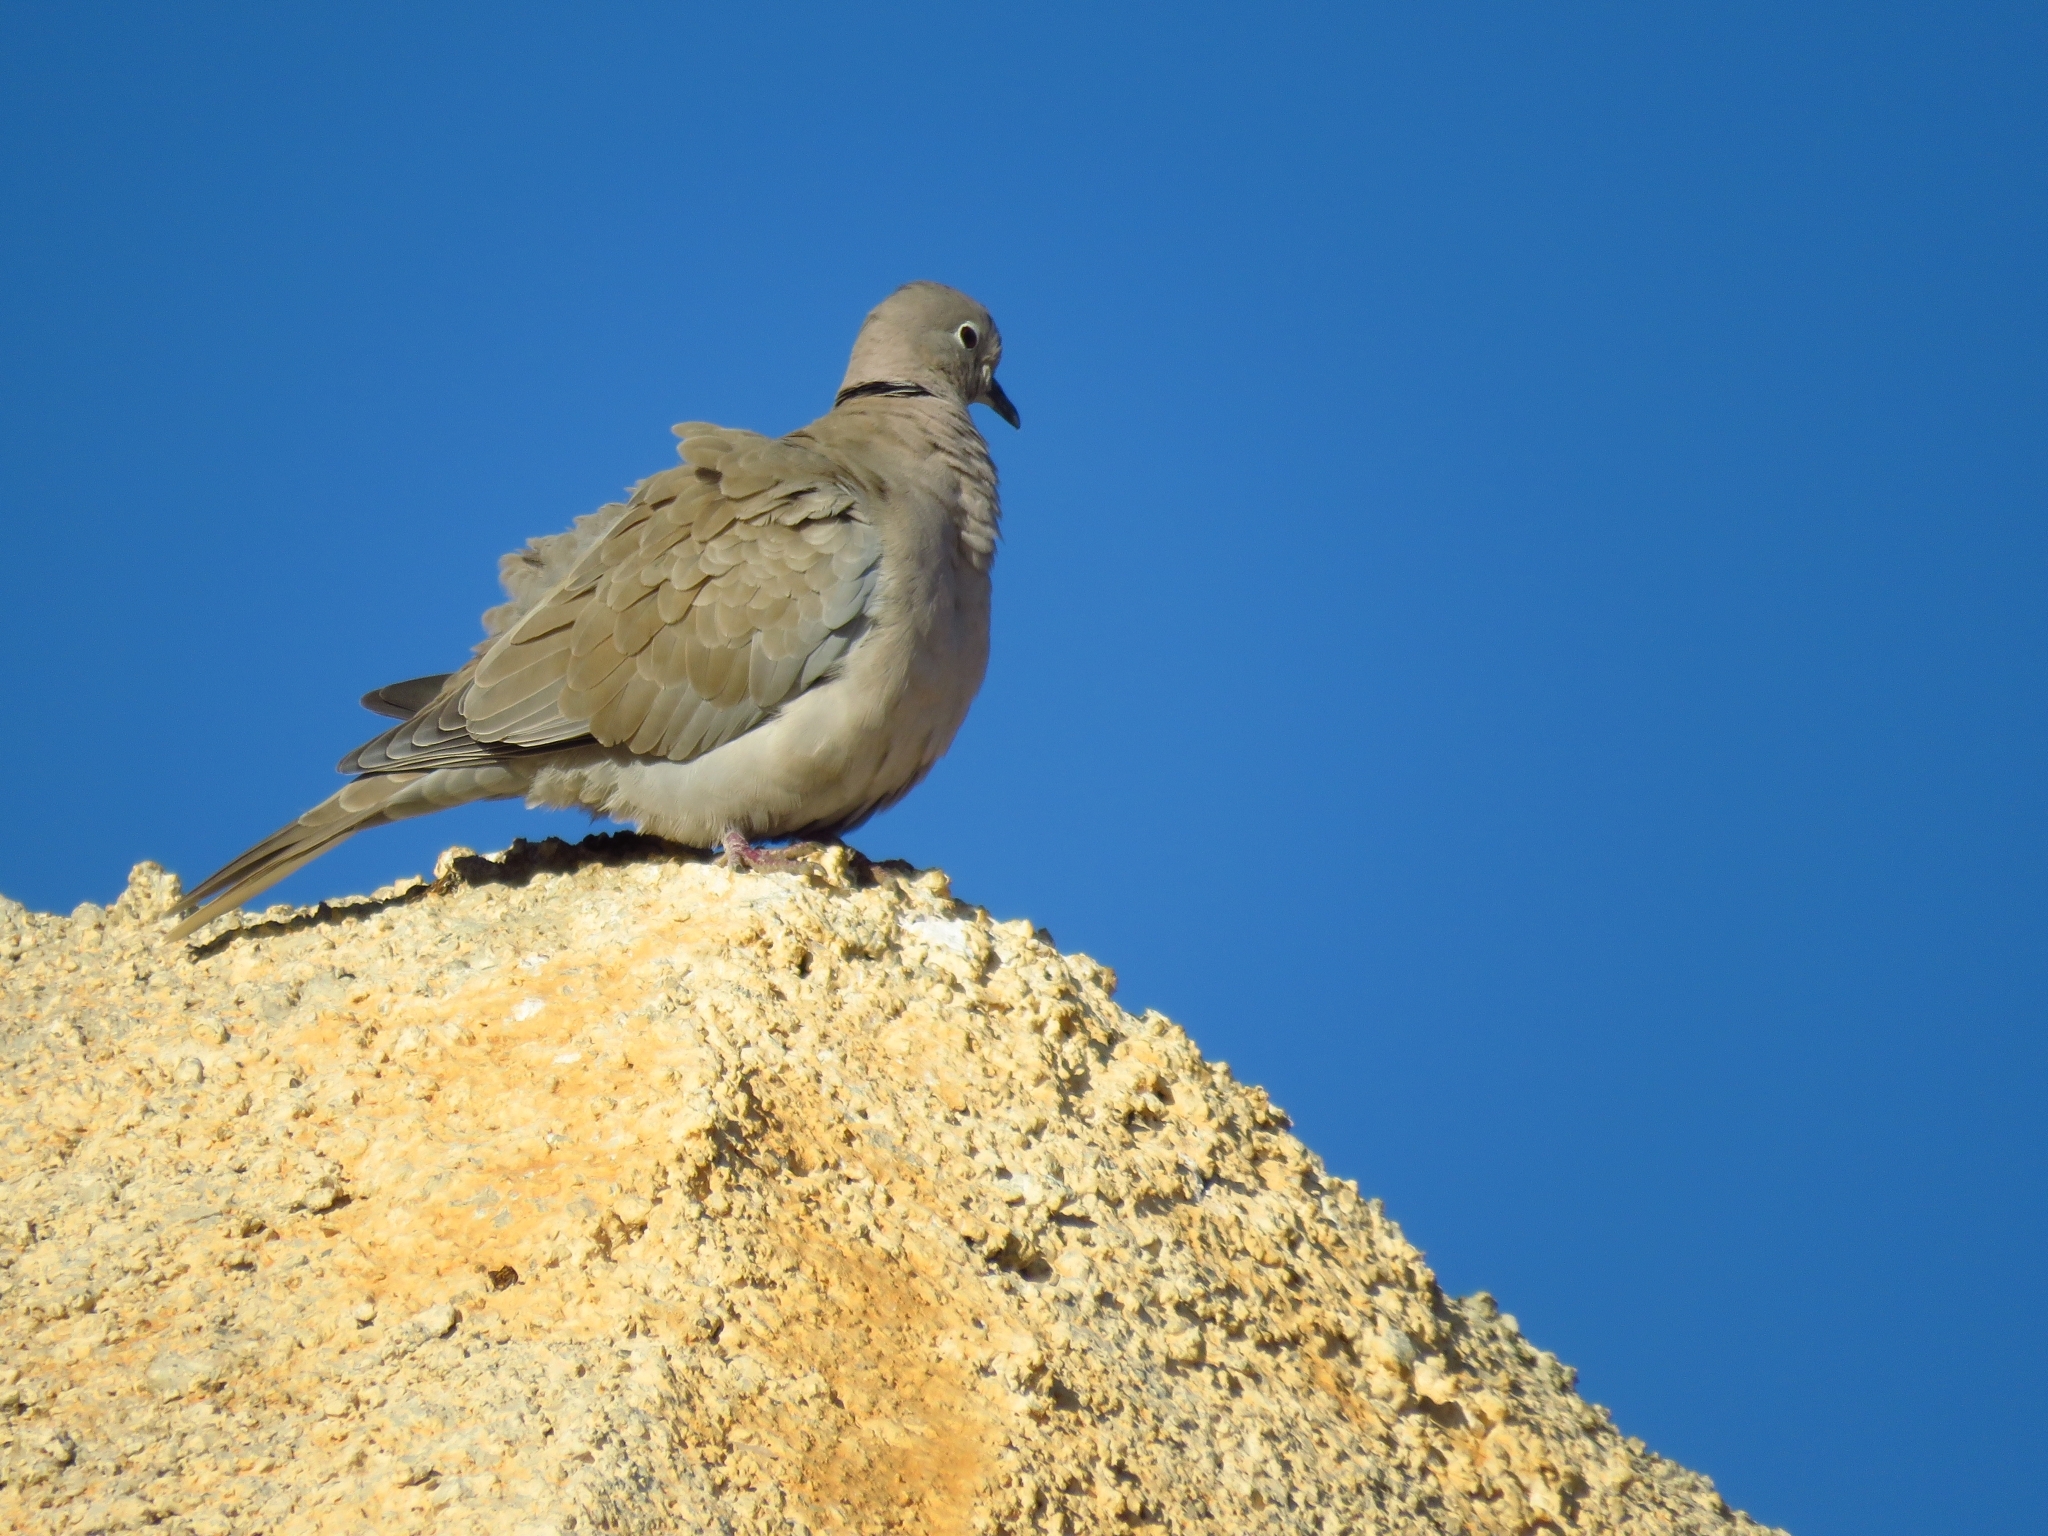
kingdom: Animalia
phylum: Chordata
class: Aves
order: Columbiformes
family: Columbidae
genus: Streptopelia
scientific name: Streptopelia decaocto
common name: Eurasian collared dove
